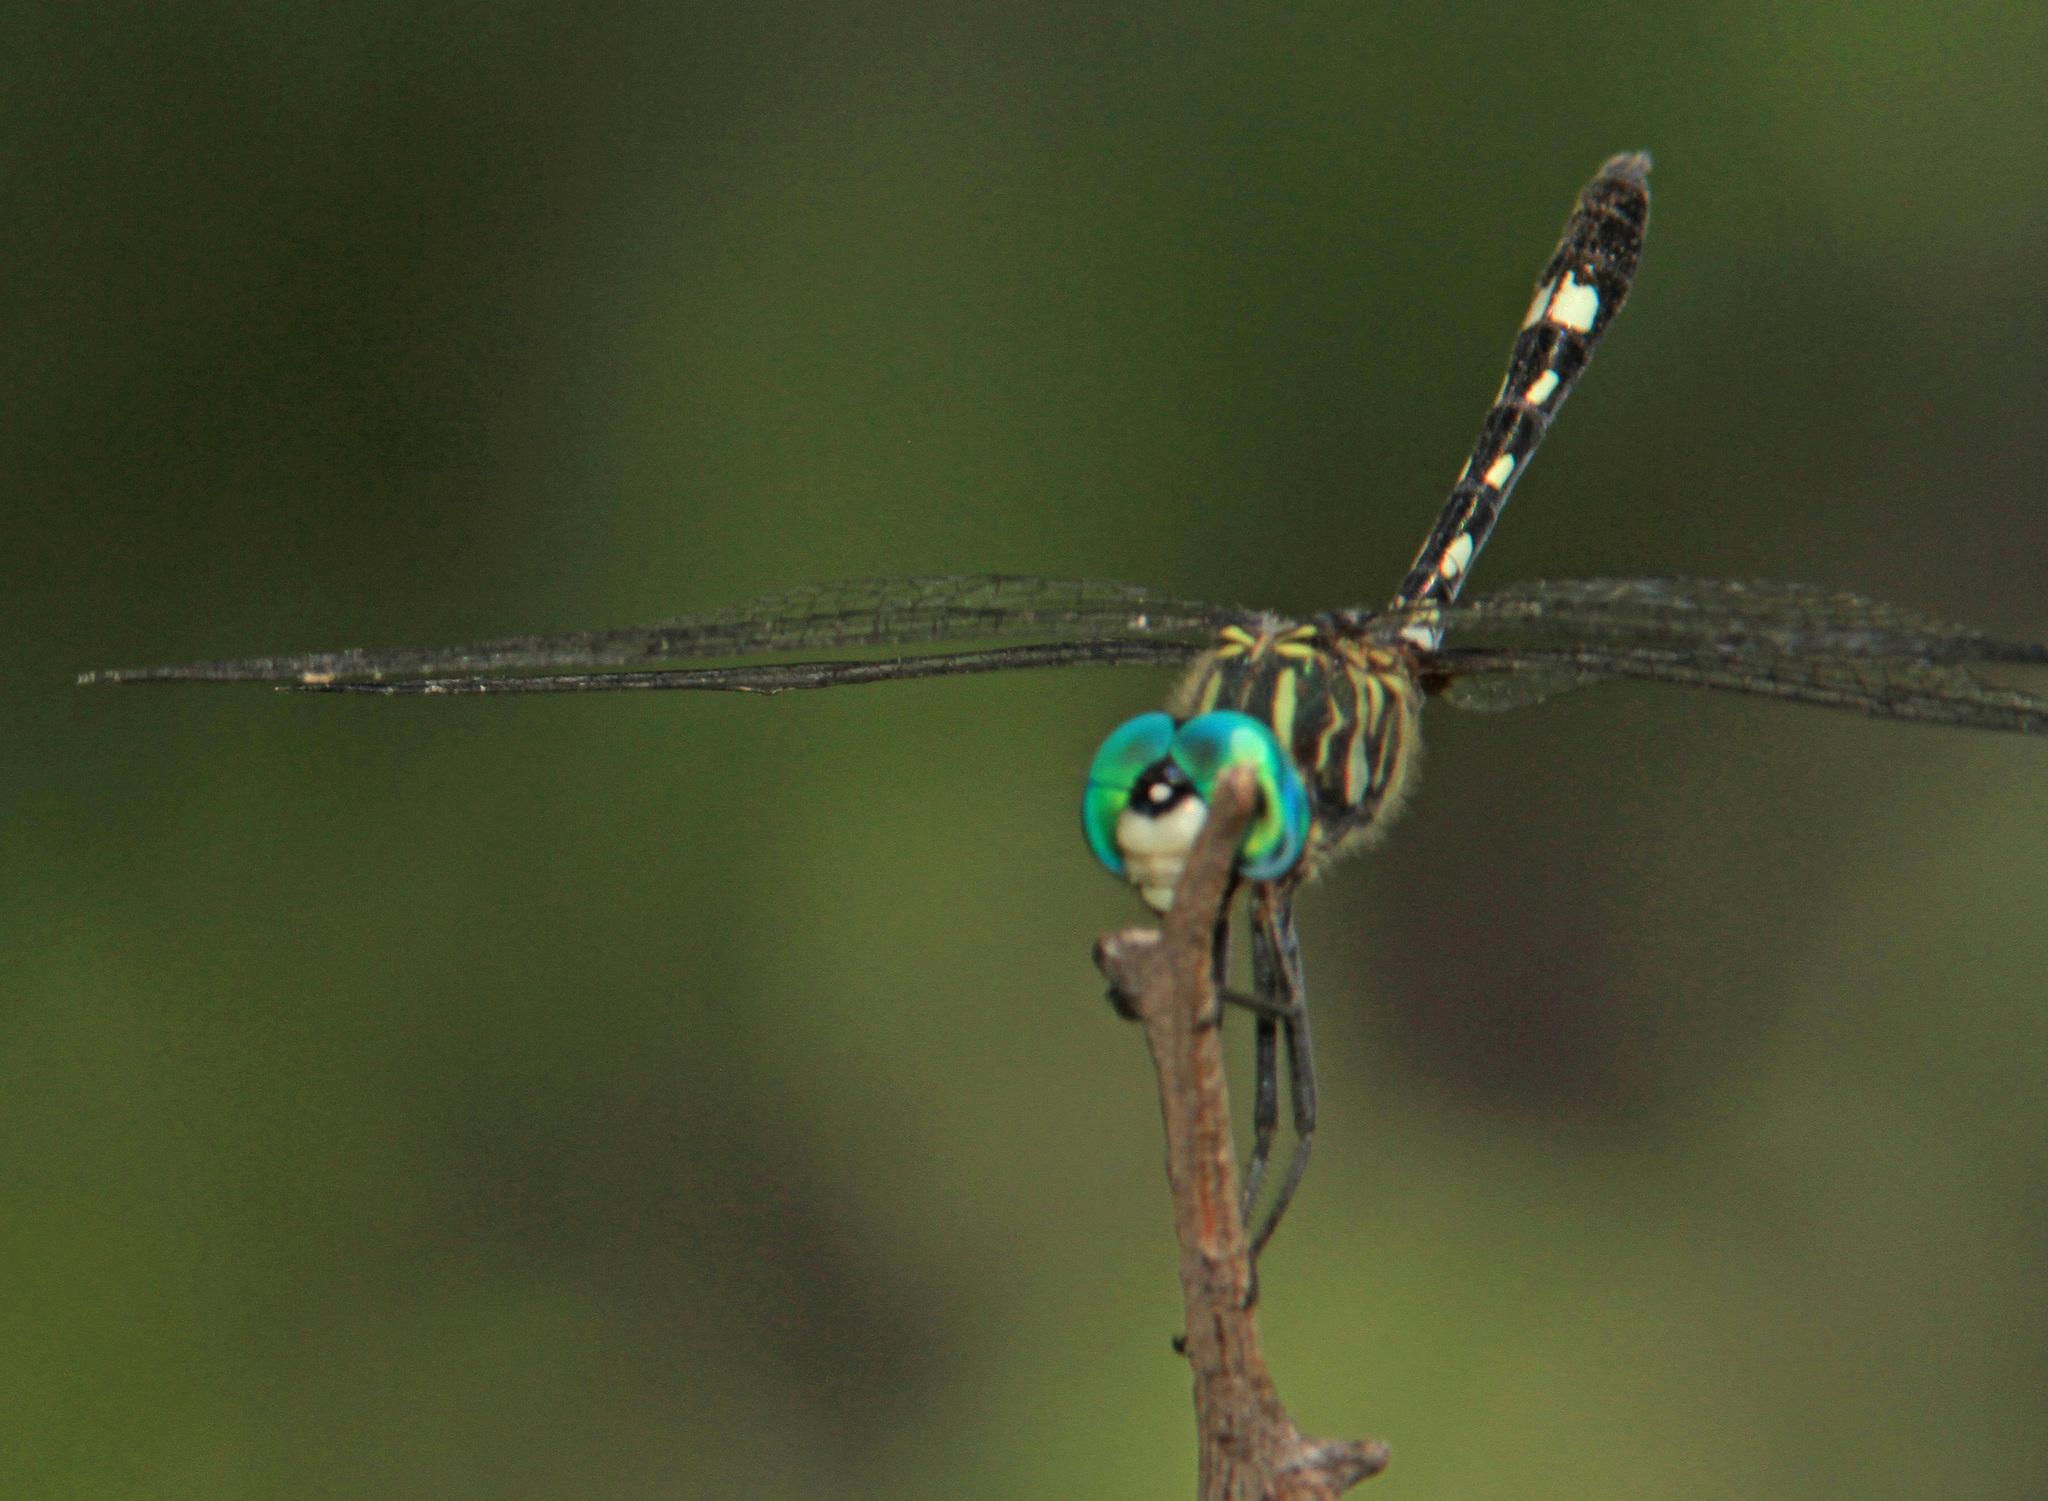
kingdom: Animalia
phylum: Arthropoda
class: Insecta
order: Odonata
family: Libellulidae
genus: Micrathyria
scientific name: Micrathyria hagenii
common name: Thornbush dasher
